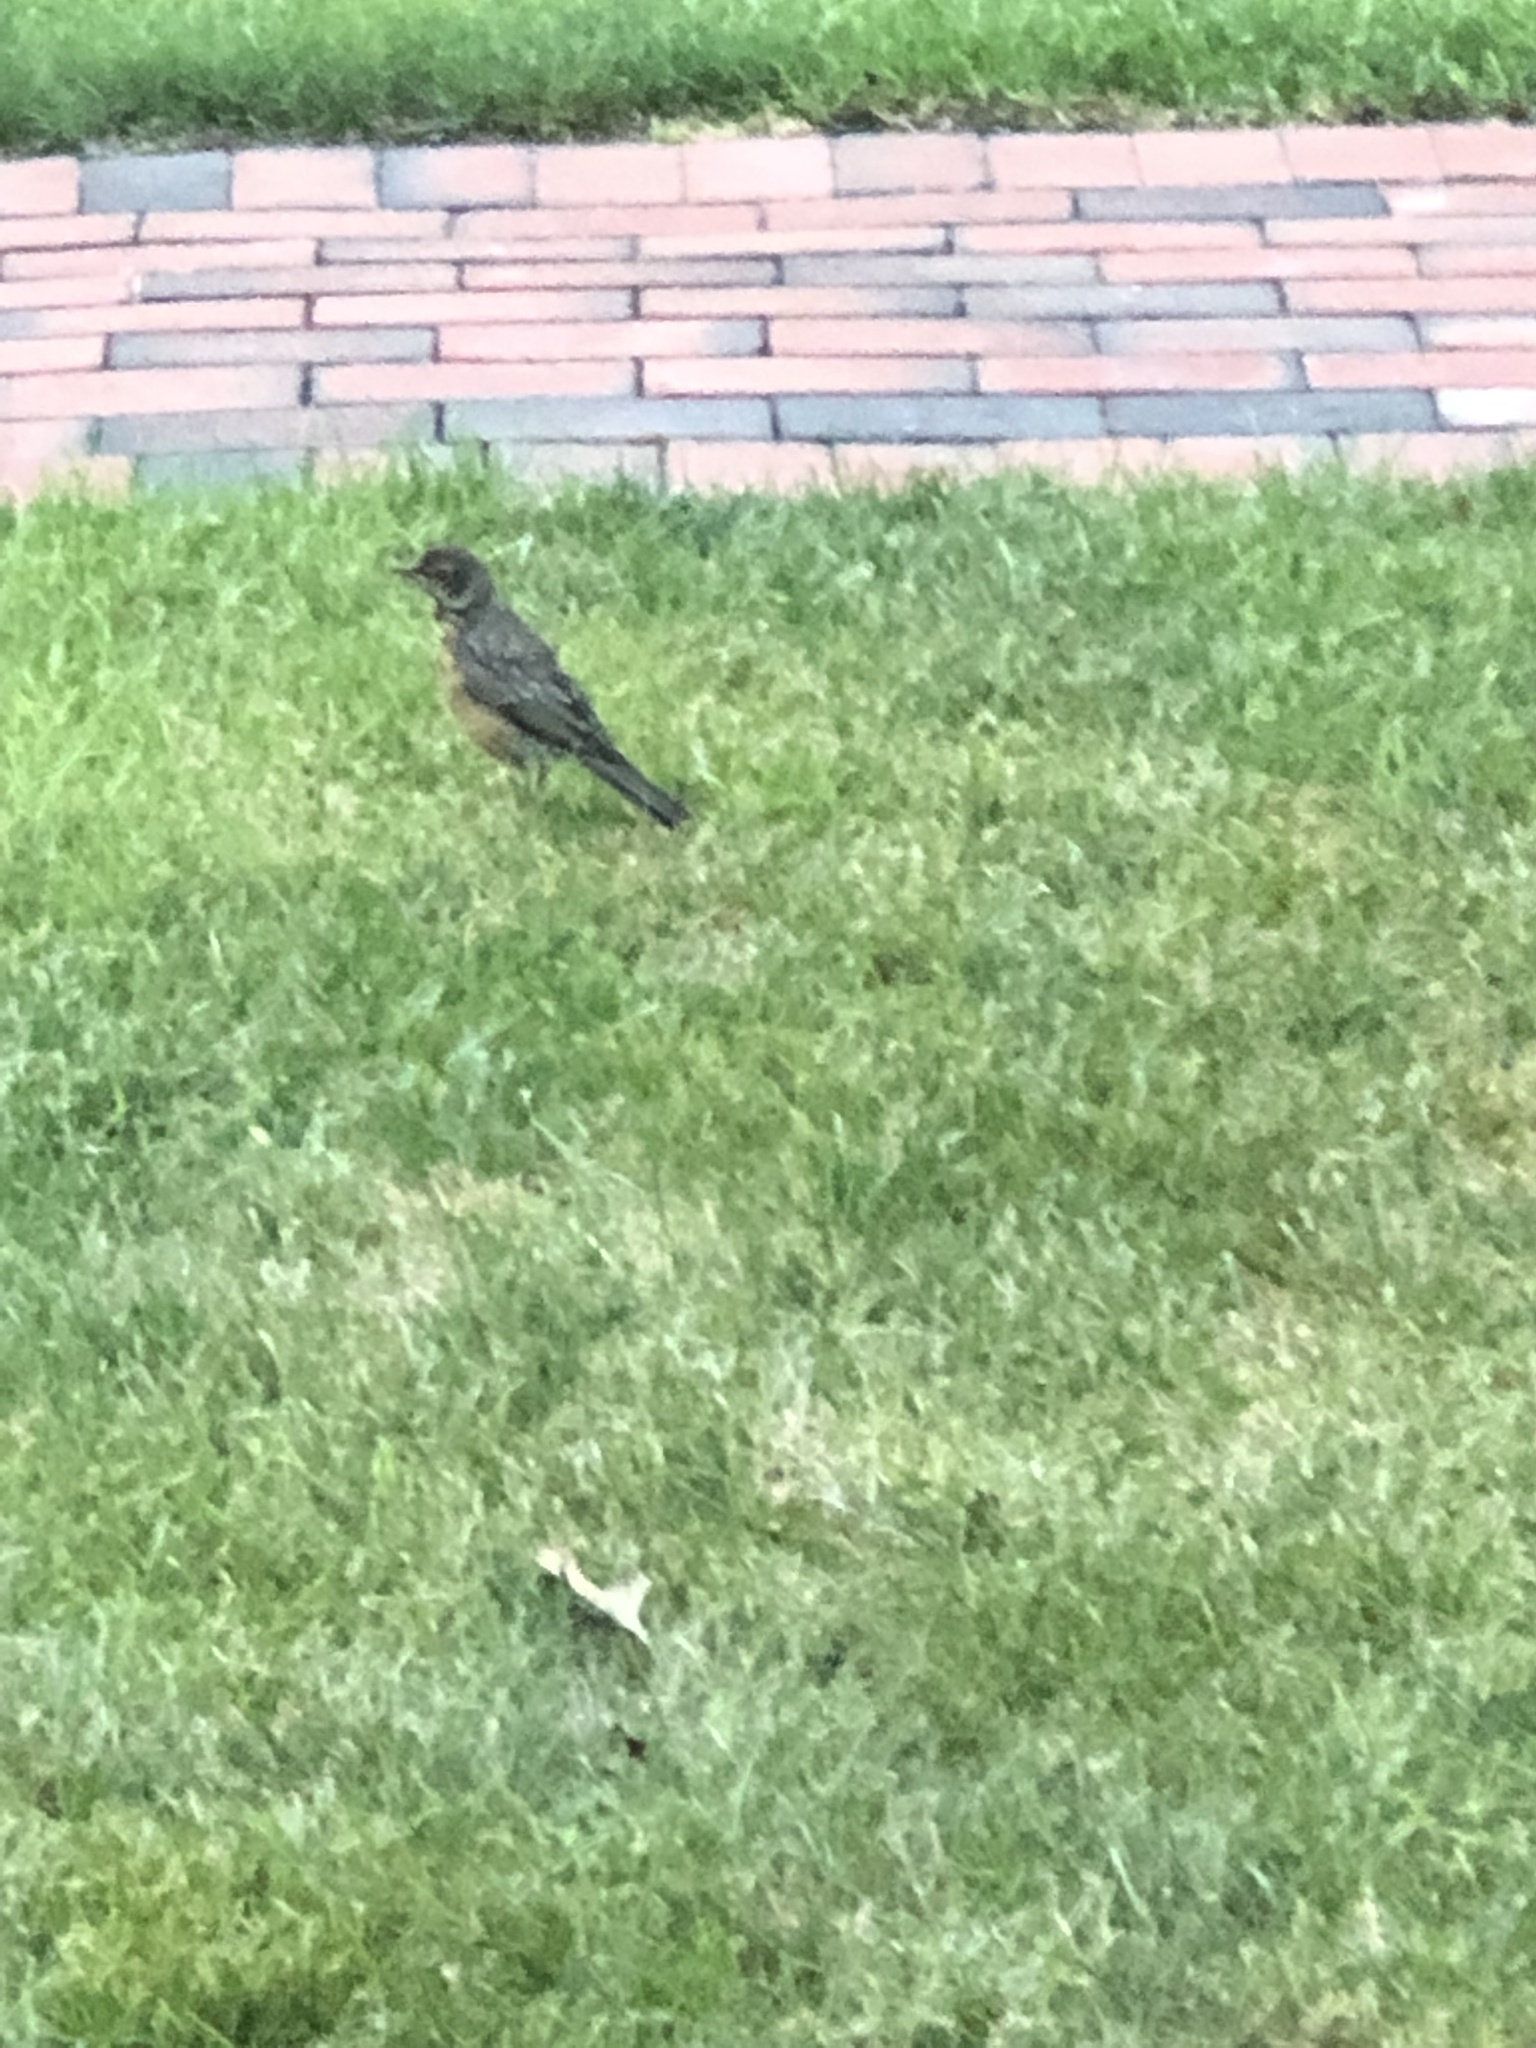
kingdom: Animalia
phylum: Chordata
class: Aves
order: Passeriformes
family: Turdidae
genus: Turdus
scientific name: Turdus migratorius
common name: American robin
